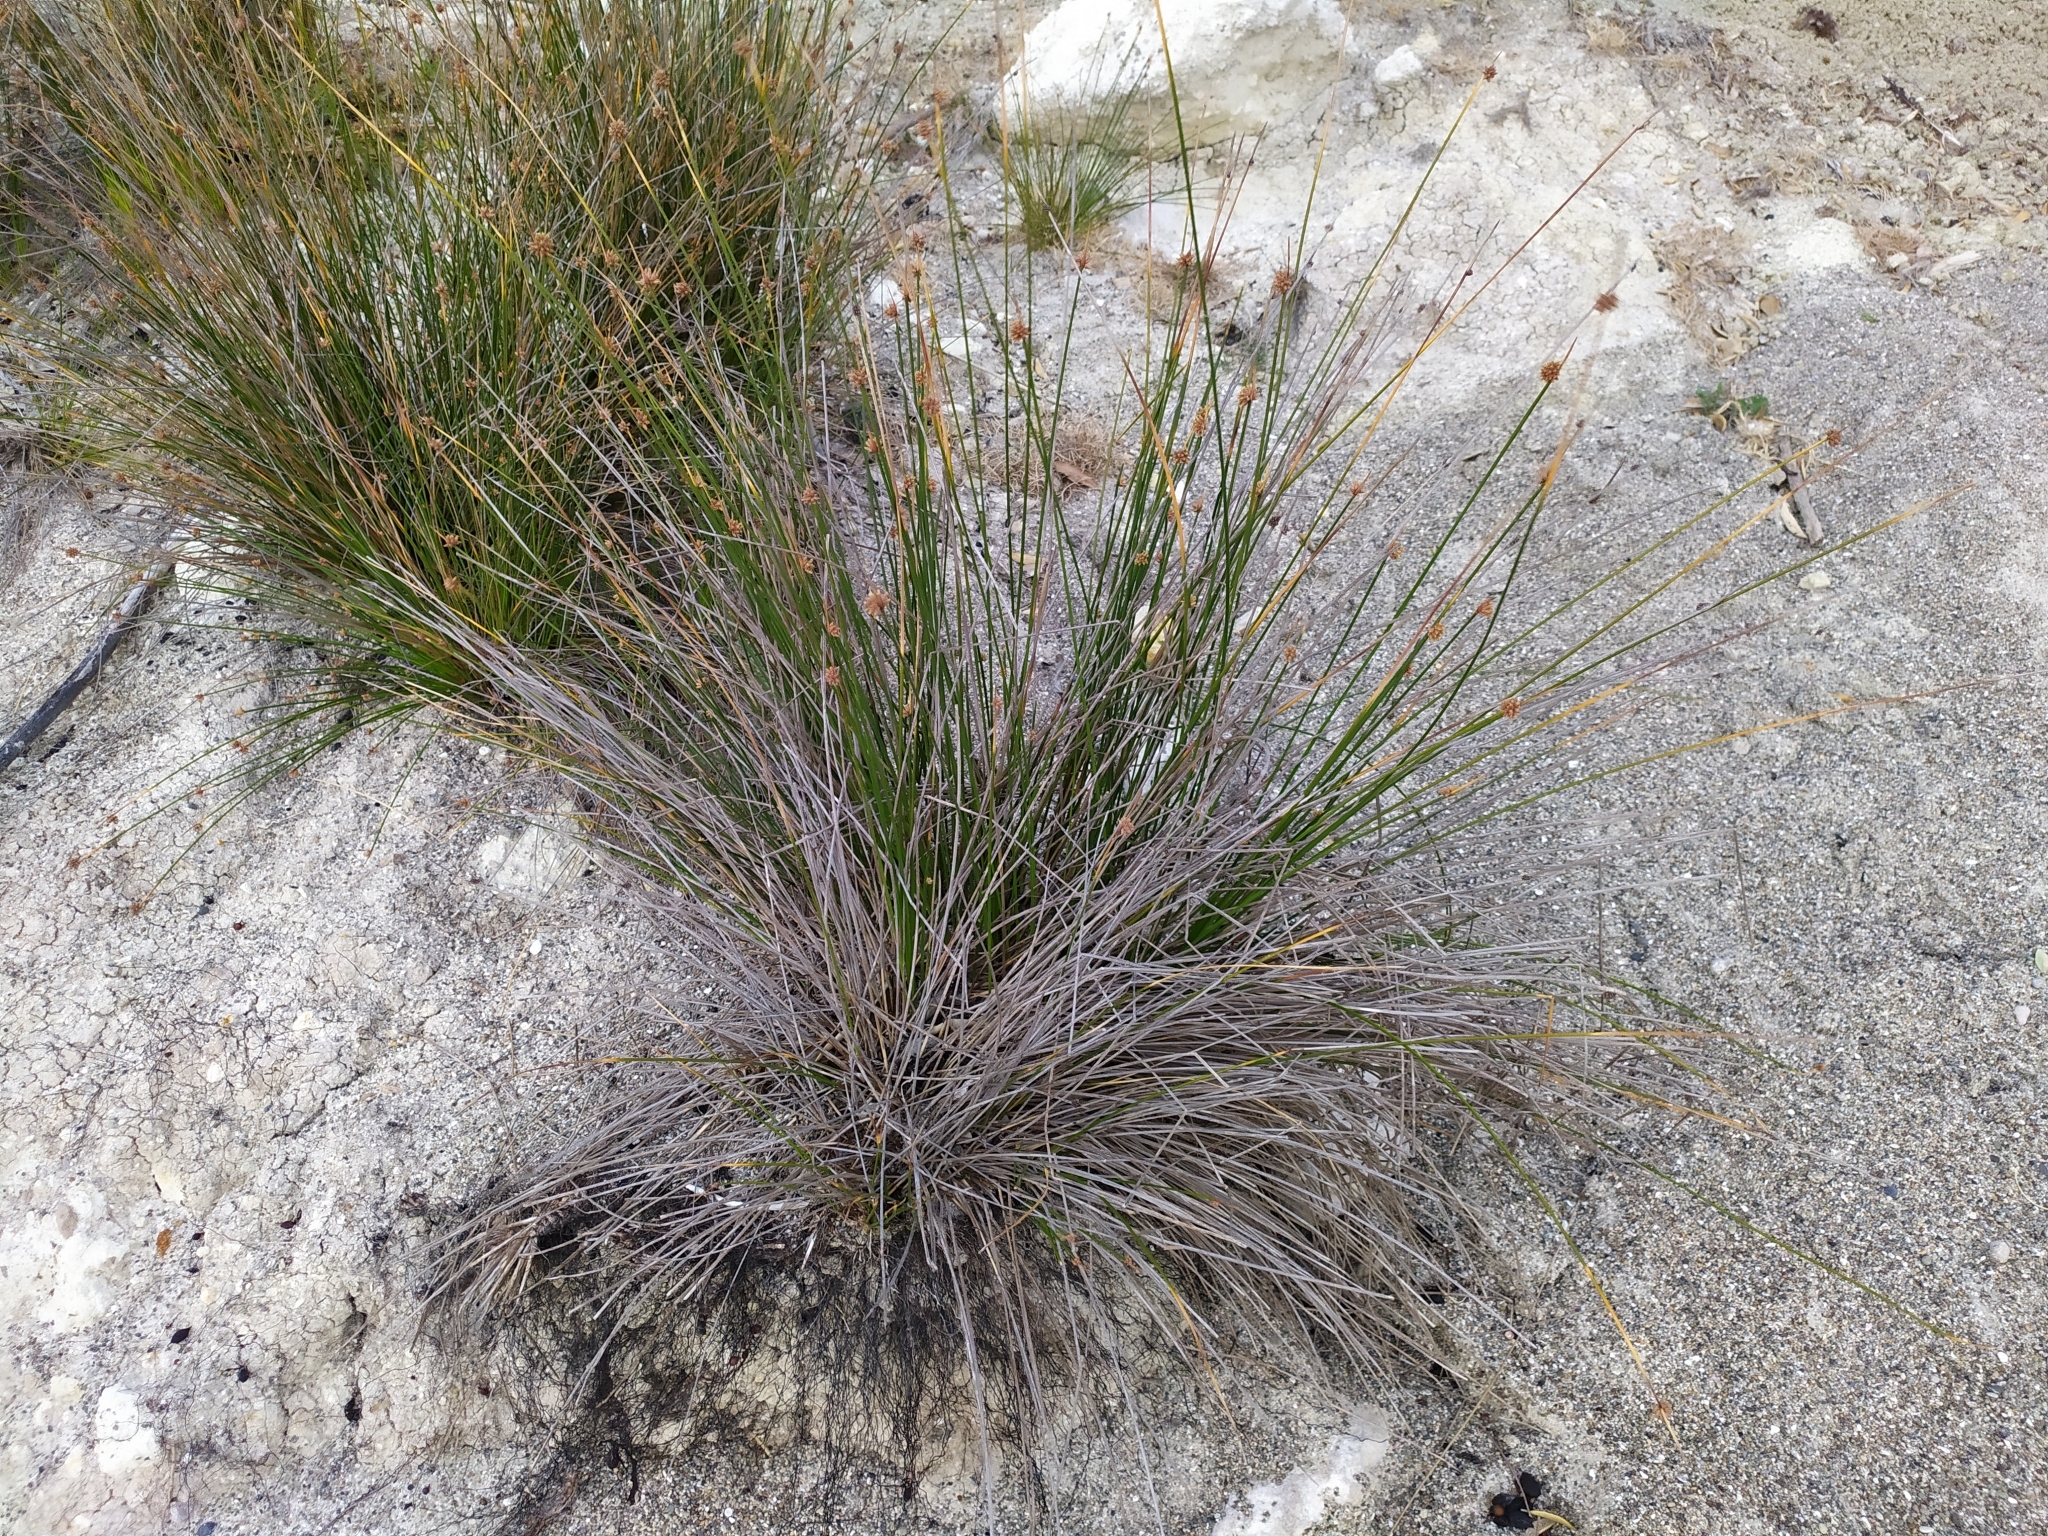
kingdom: Plantae
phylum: Tracheophyta
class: Liliopsida
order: Poales
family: Cyperaceae
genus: Ficinia
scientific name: Ficinia nodosa
